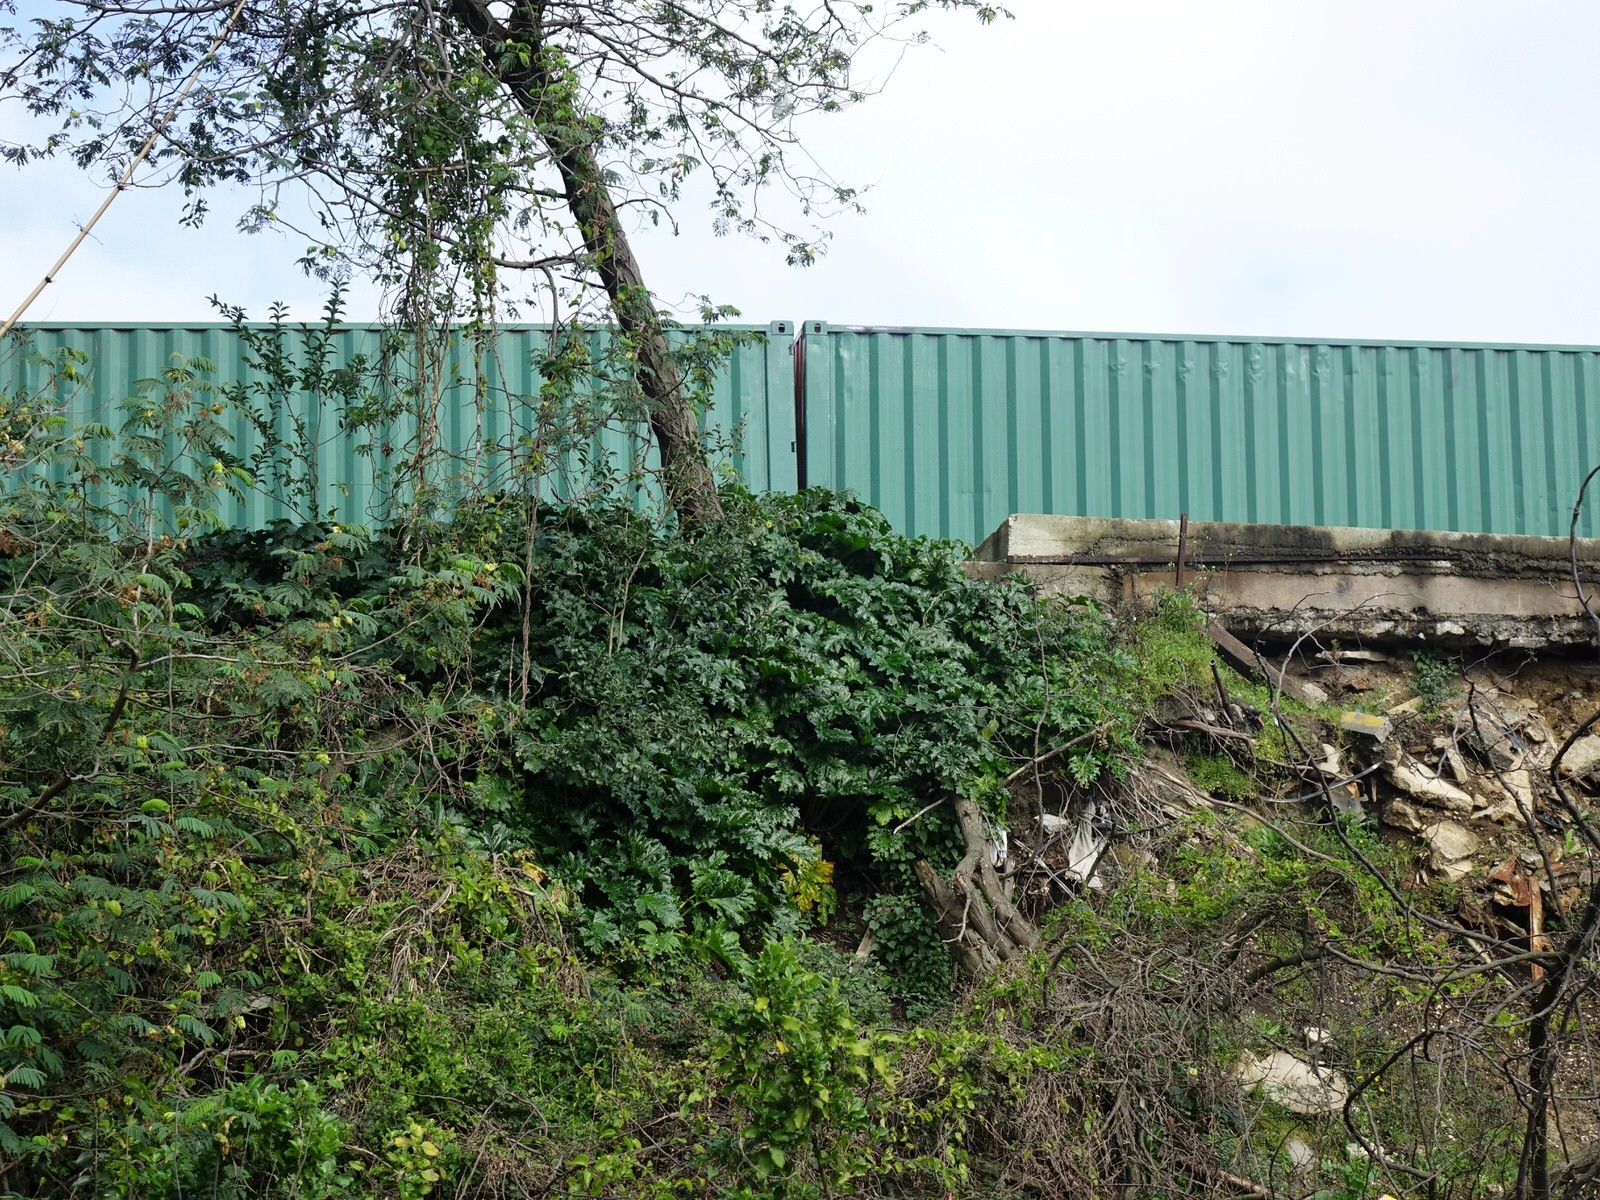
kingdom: Plantae
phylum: Tracheophyta
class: Magnoliopsida
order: Lamiales
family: Acanthaceae
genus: Acanthus
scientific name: Acanthus mollis
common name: Bear's-breech
